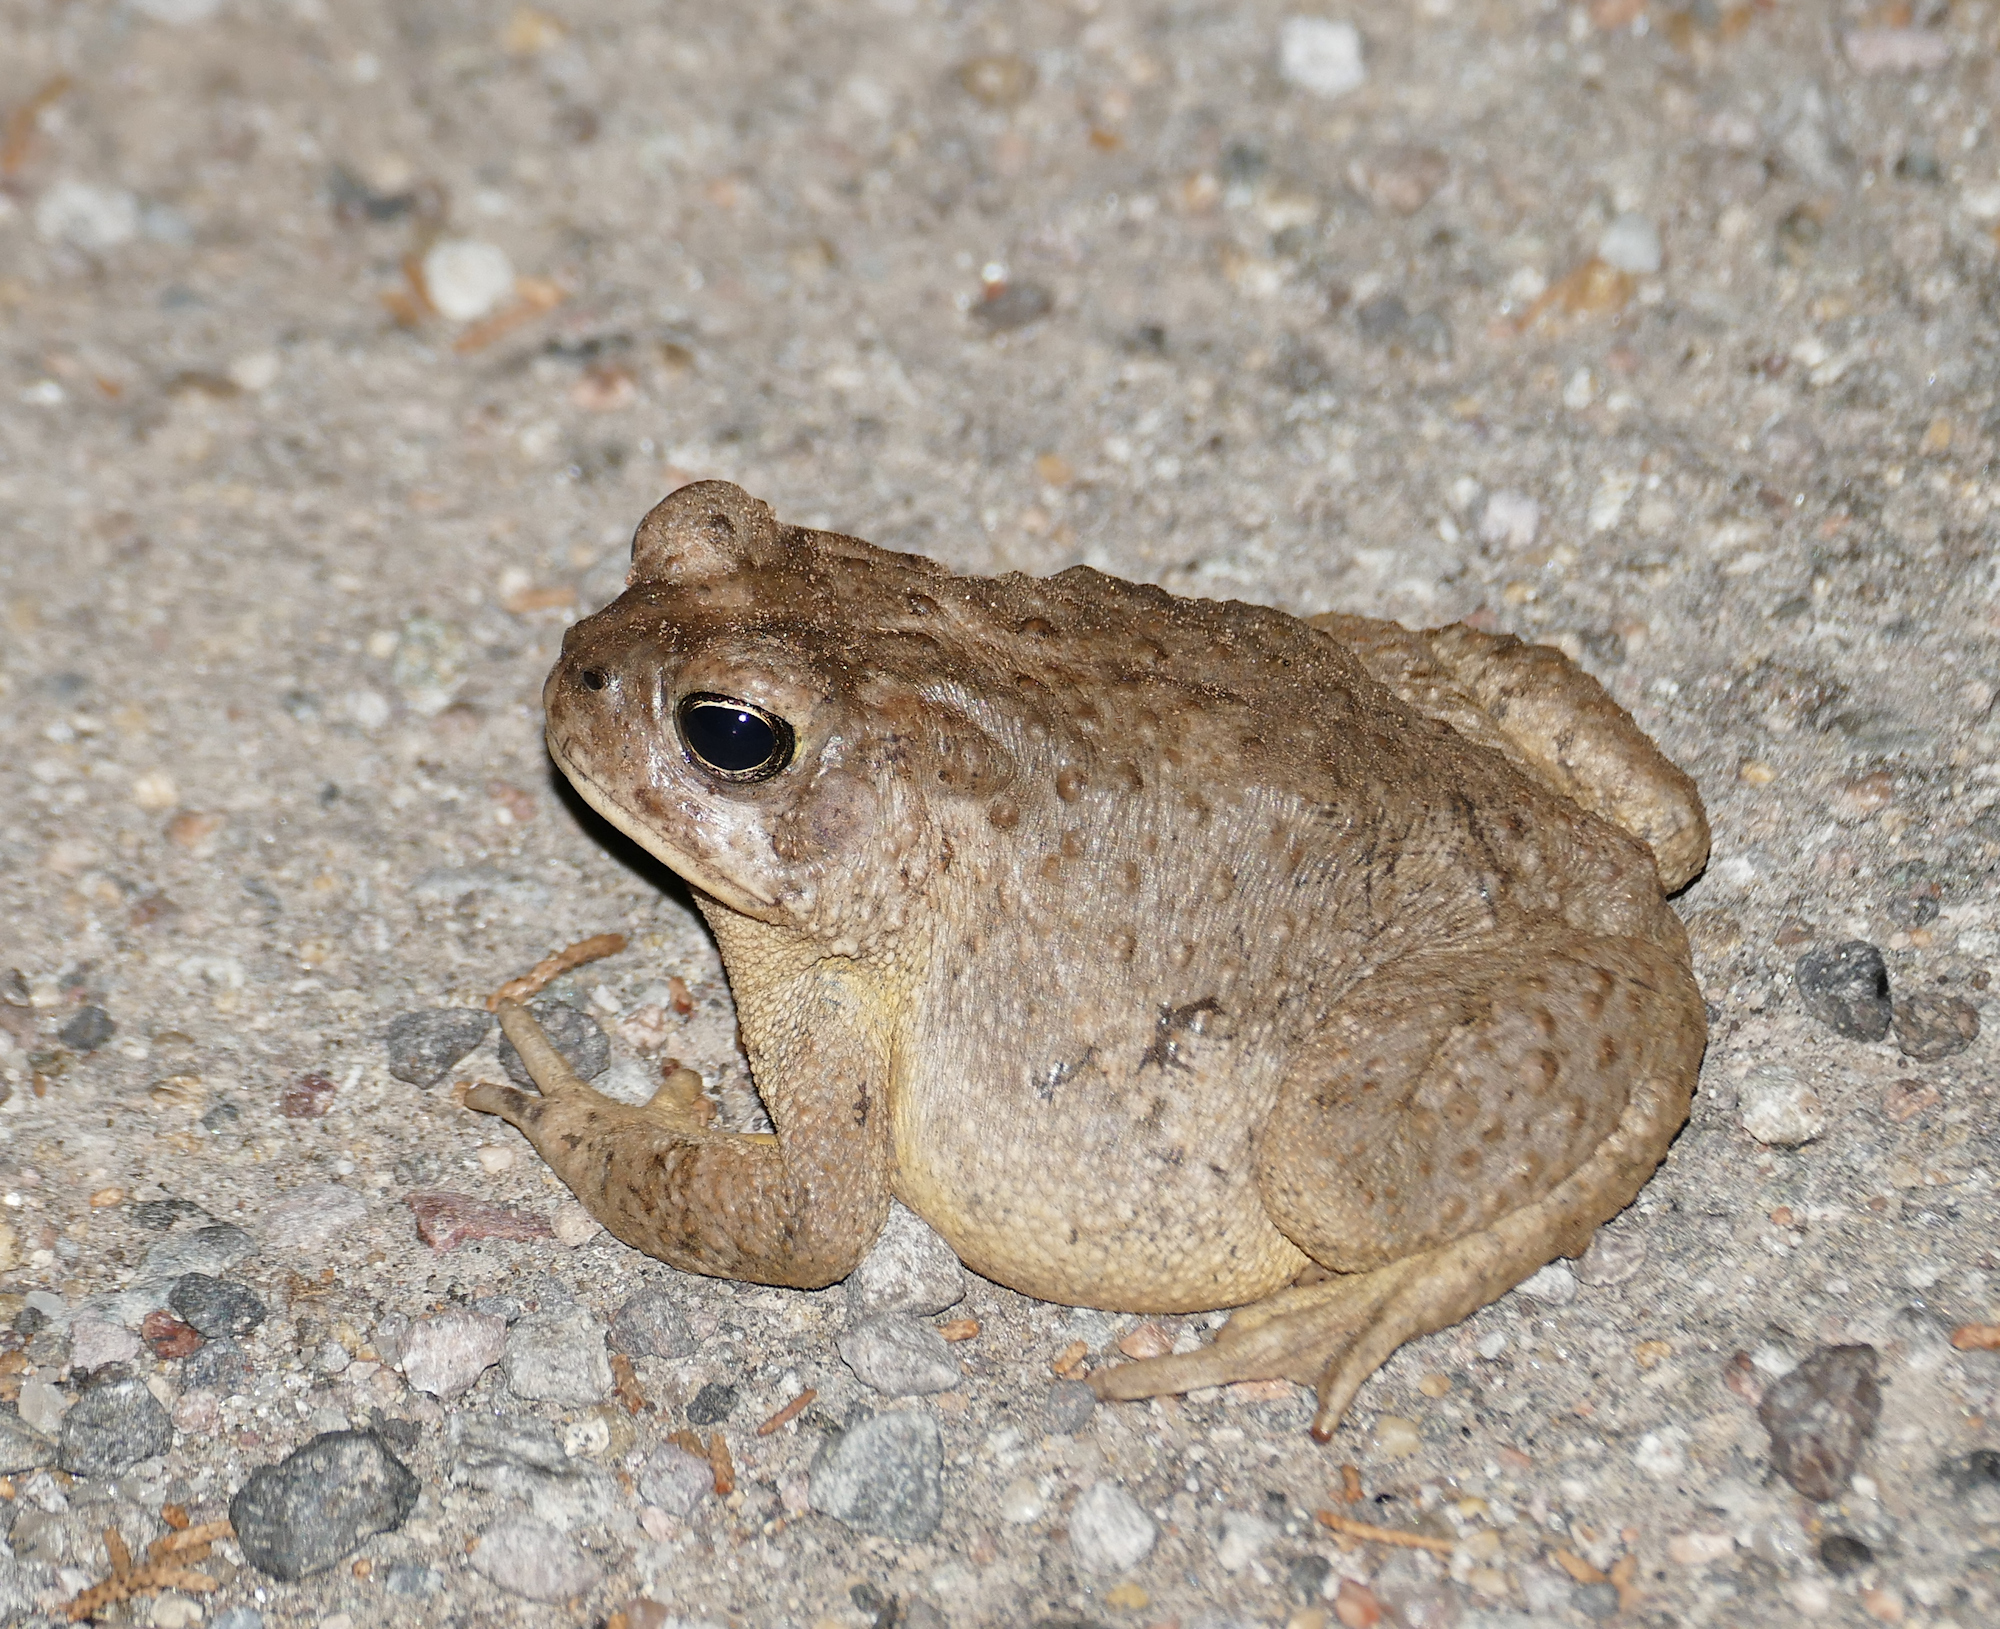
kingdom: Animalia
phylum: Chordata
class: Amphibia
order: Anura
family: Bufonidae
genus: Anaxyrus
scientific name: Anaxyrus microscaphus
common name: Arizona toad
